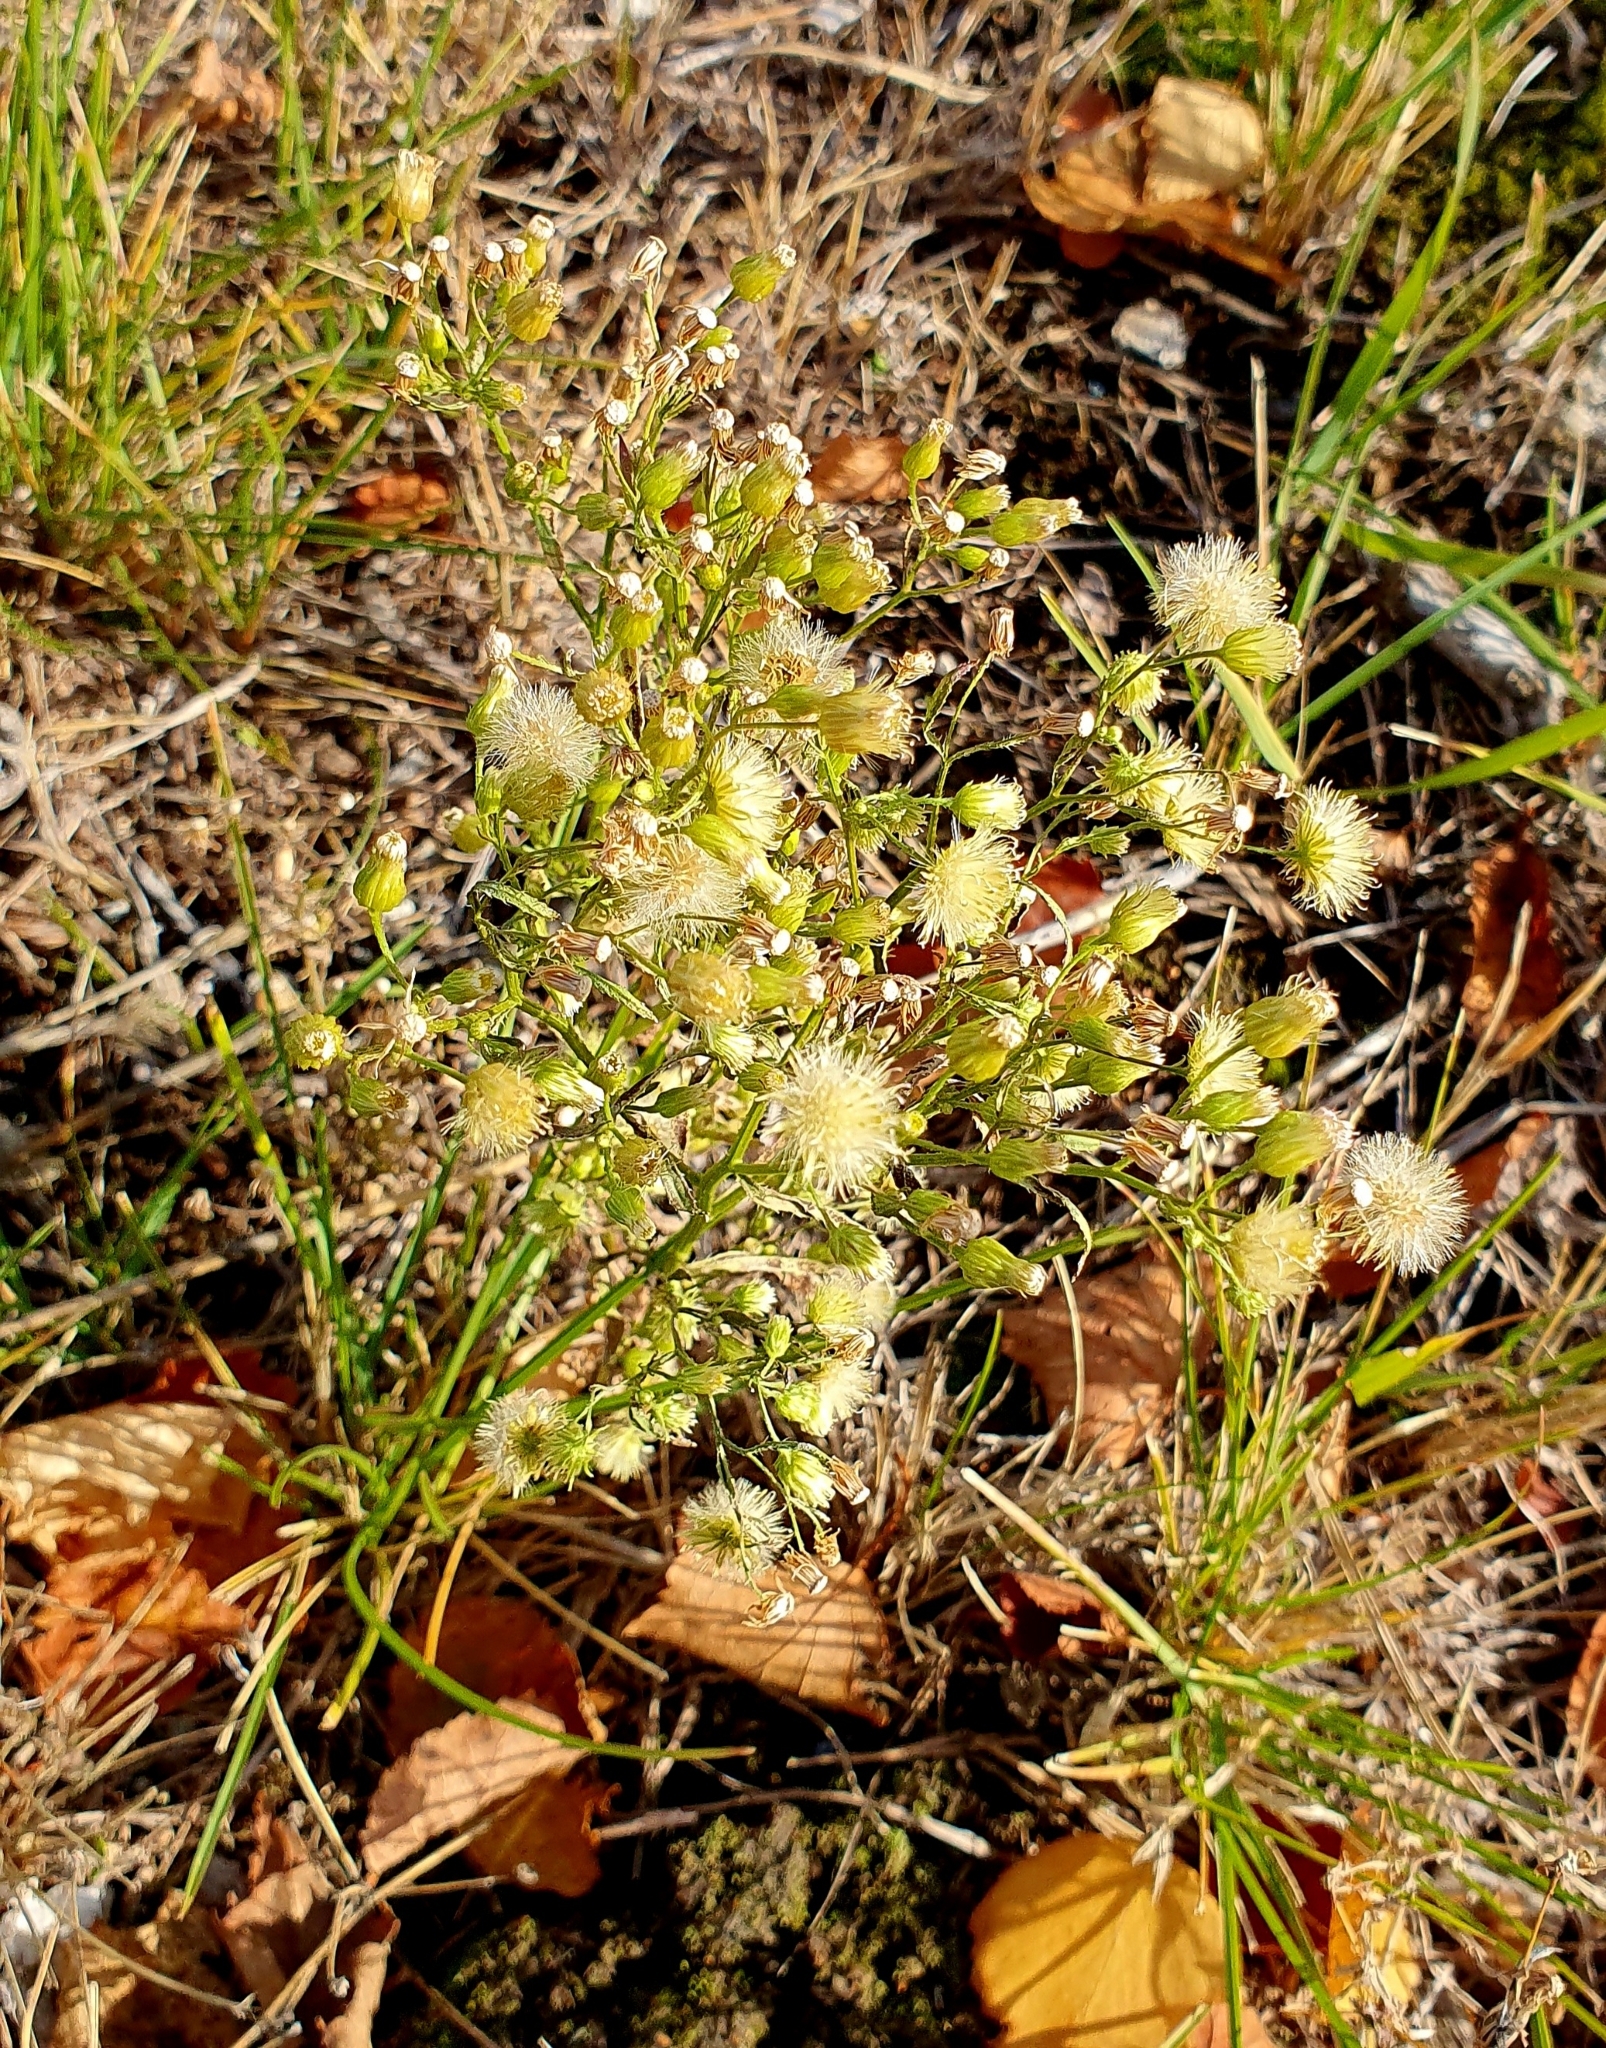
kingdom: Plantae
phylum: Tracheophyta
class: Magnoliopsida
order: Asterales
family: Asteraceae
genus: Erigeron
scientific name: Erigeron canadensis
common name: Canadian fleabane
